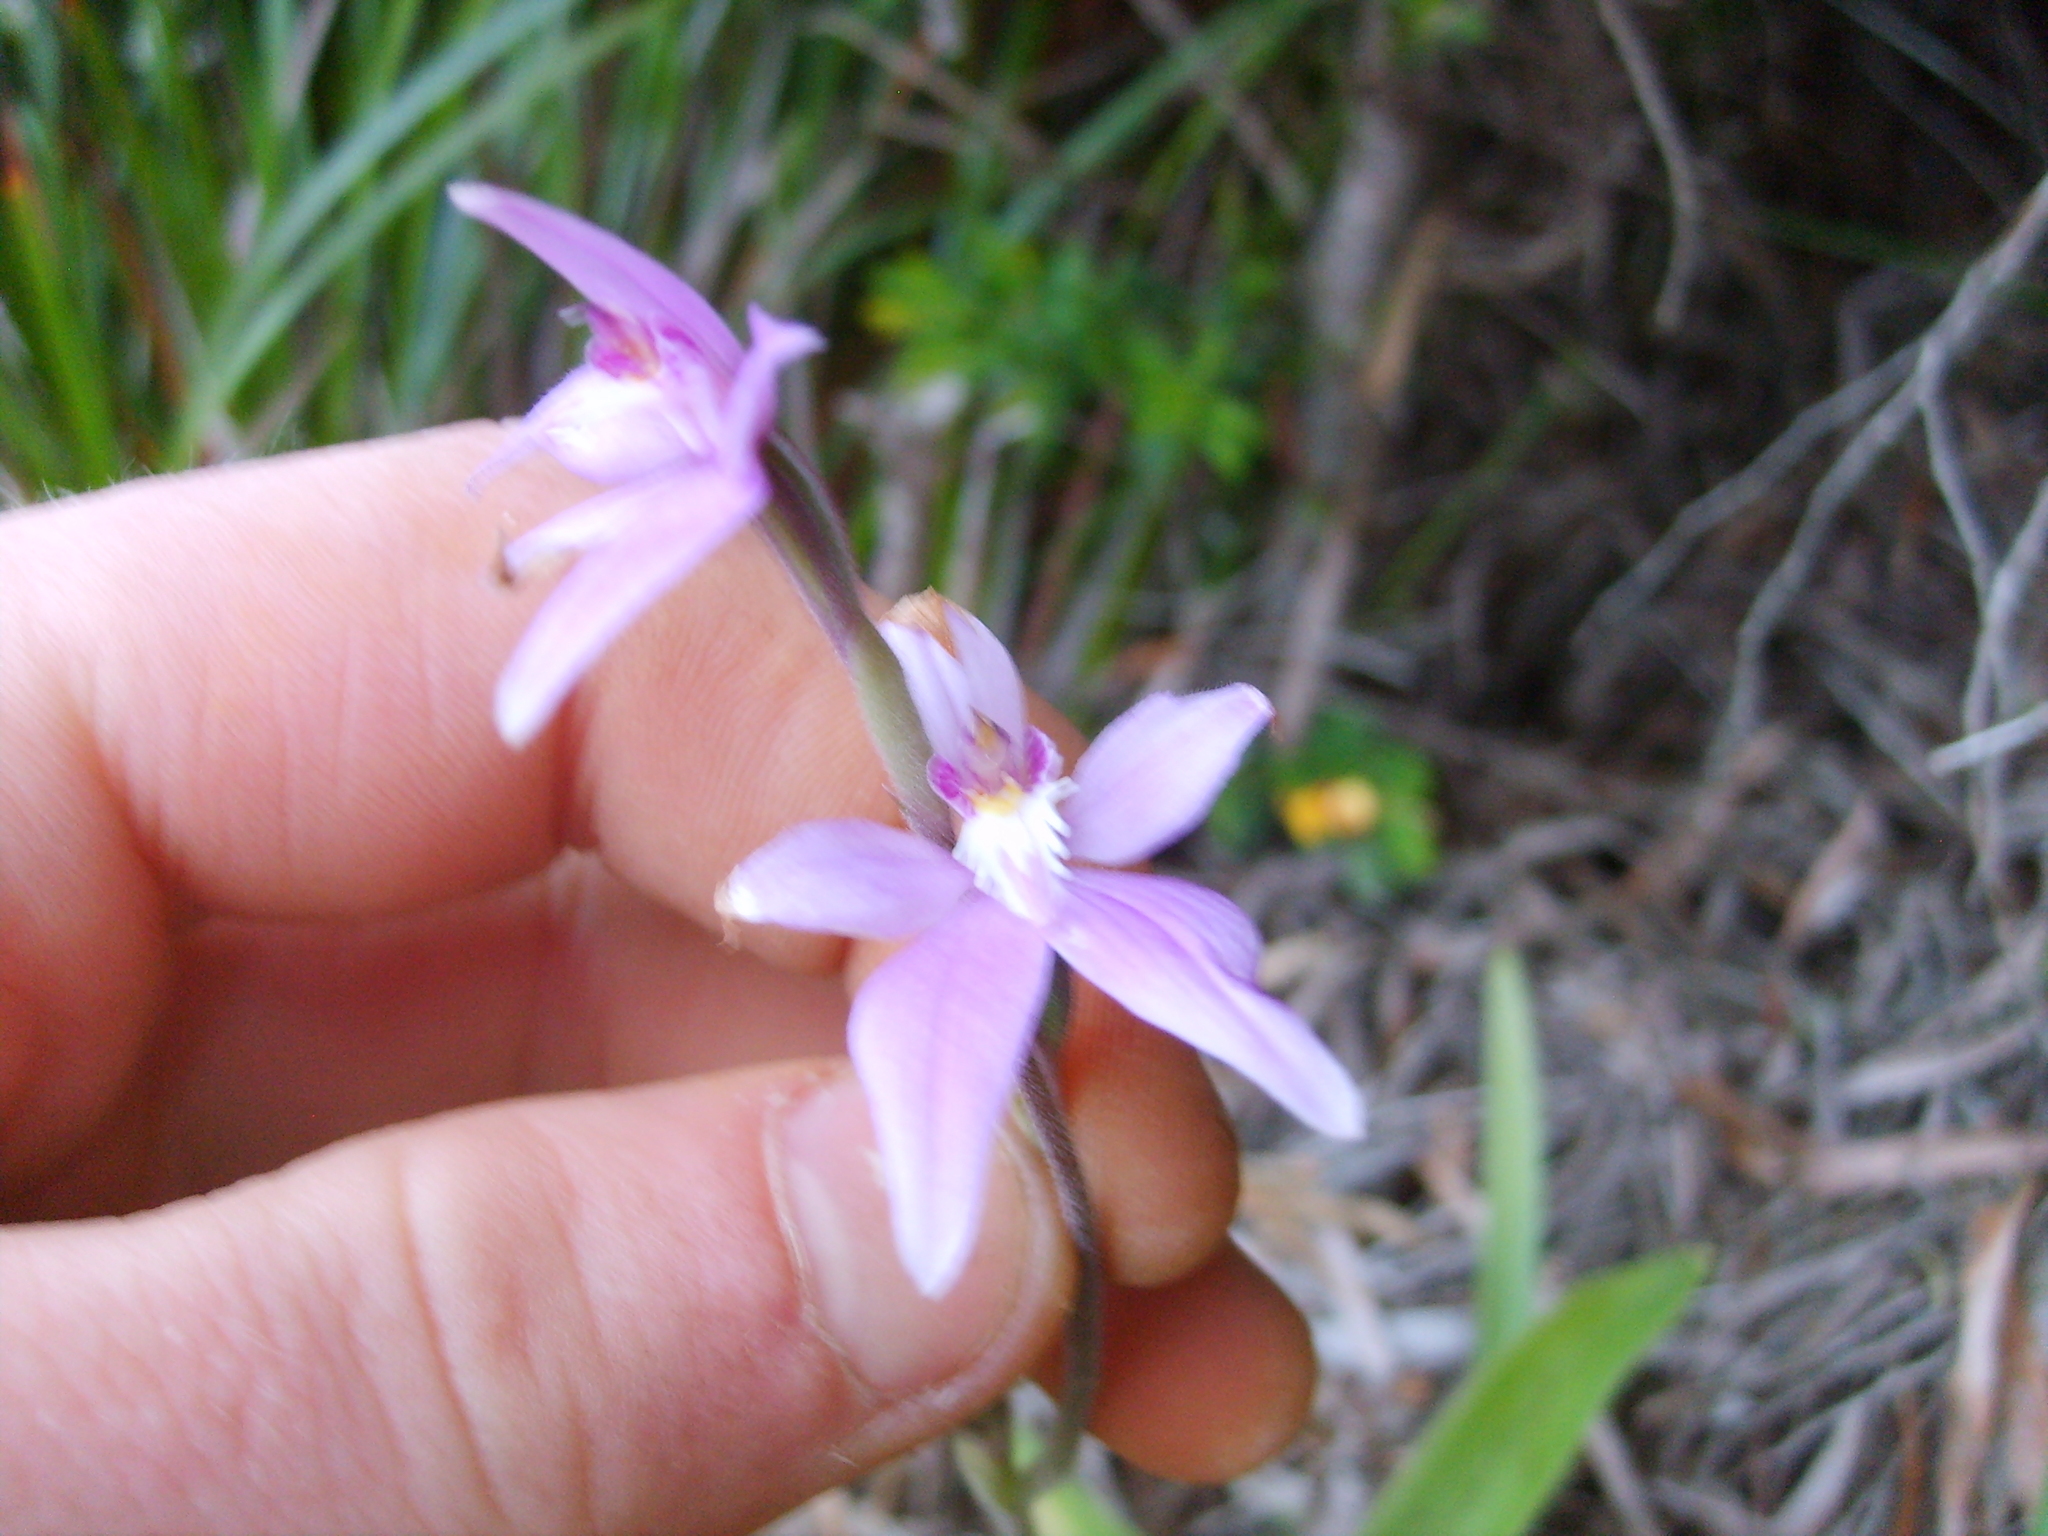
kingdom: Plantae
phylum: Tracheophyta
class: Liliopsida
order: Asparagales
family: Orchidaceae
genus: Caladenia
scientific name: Caladenia latifolia
